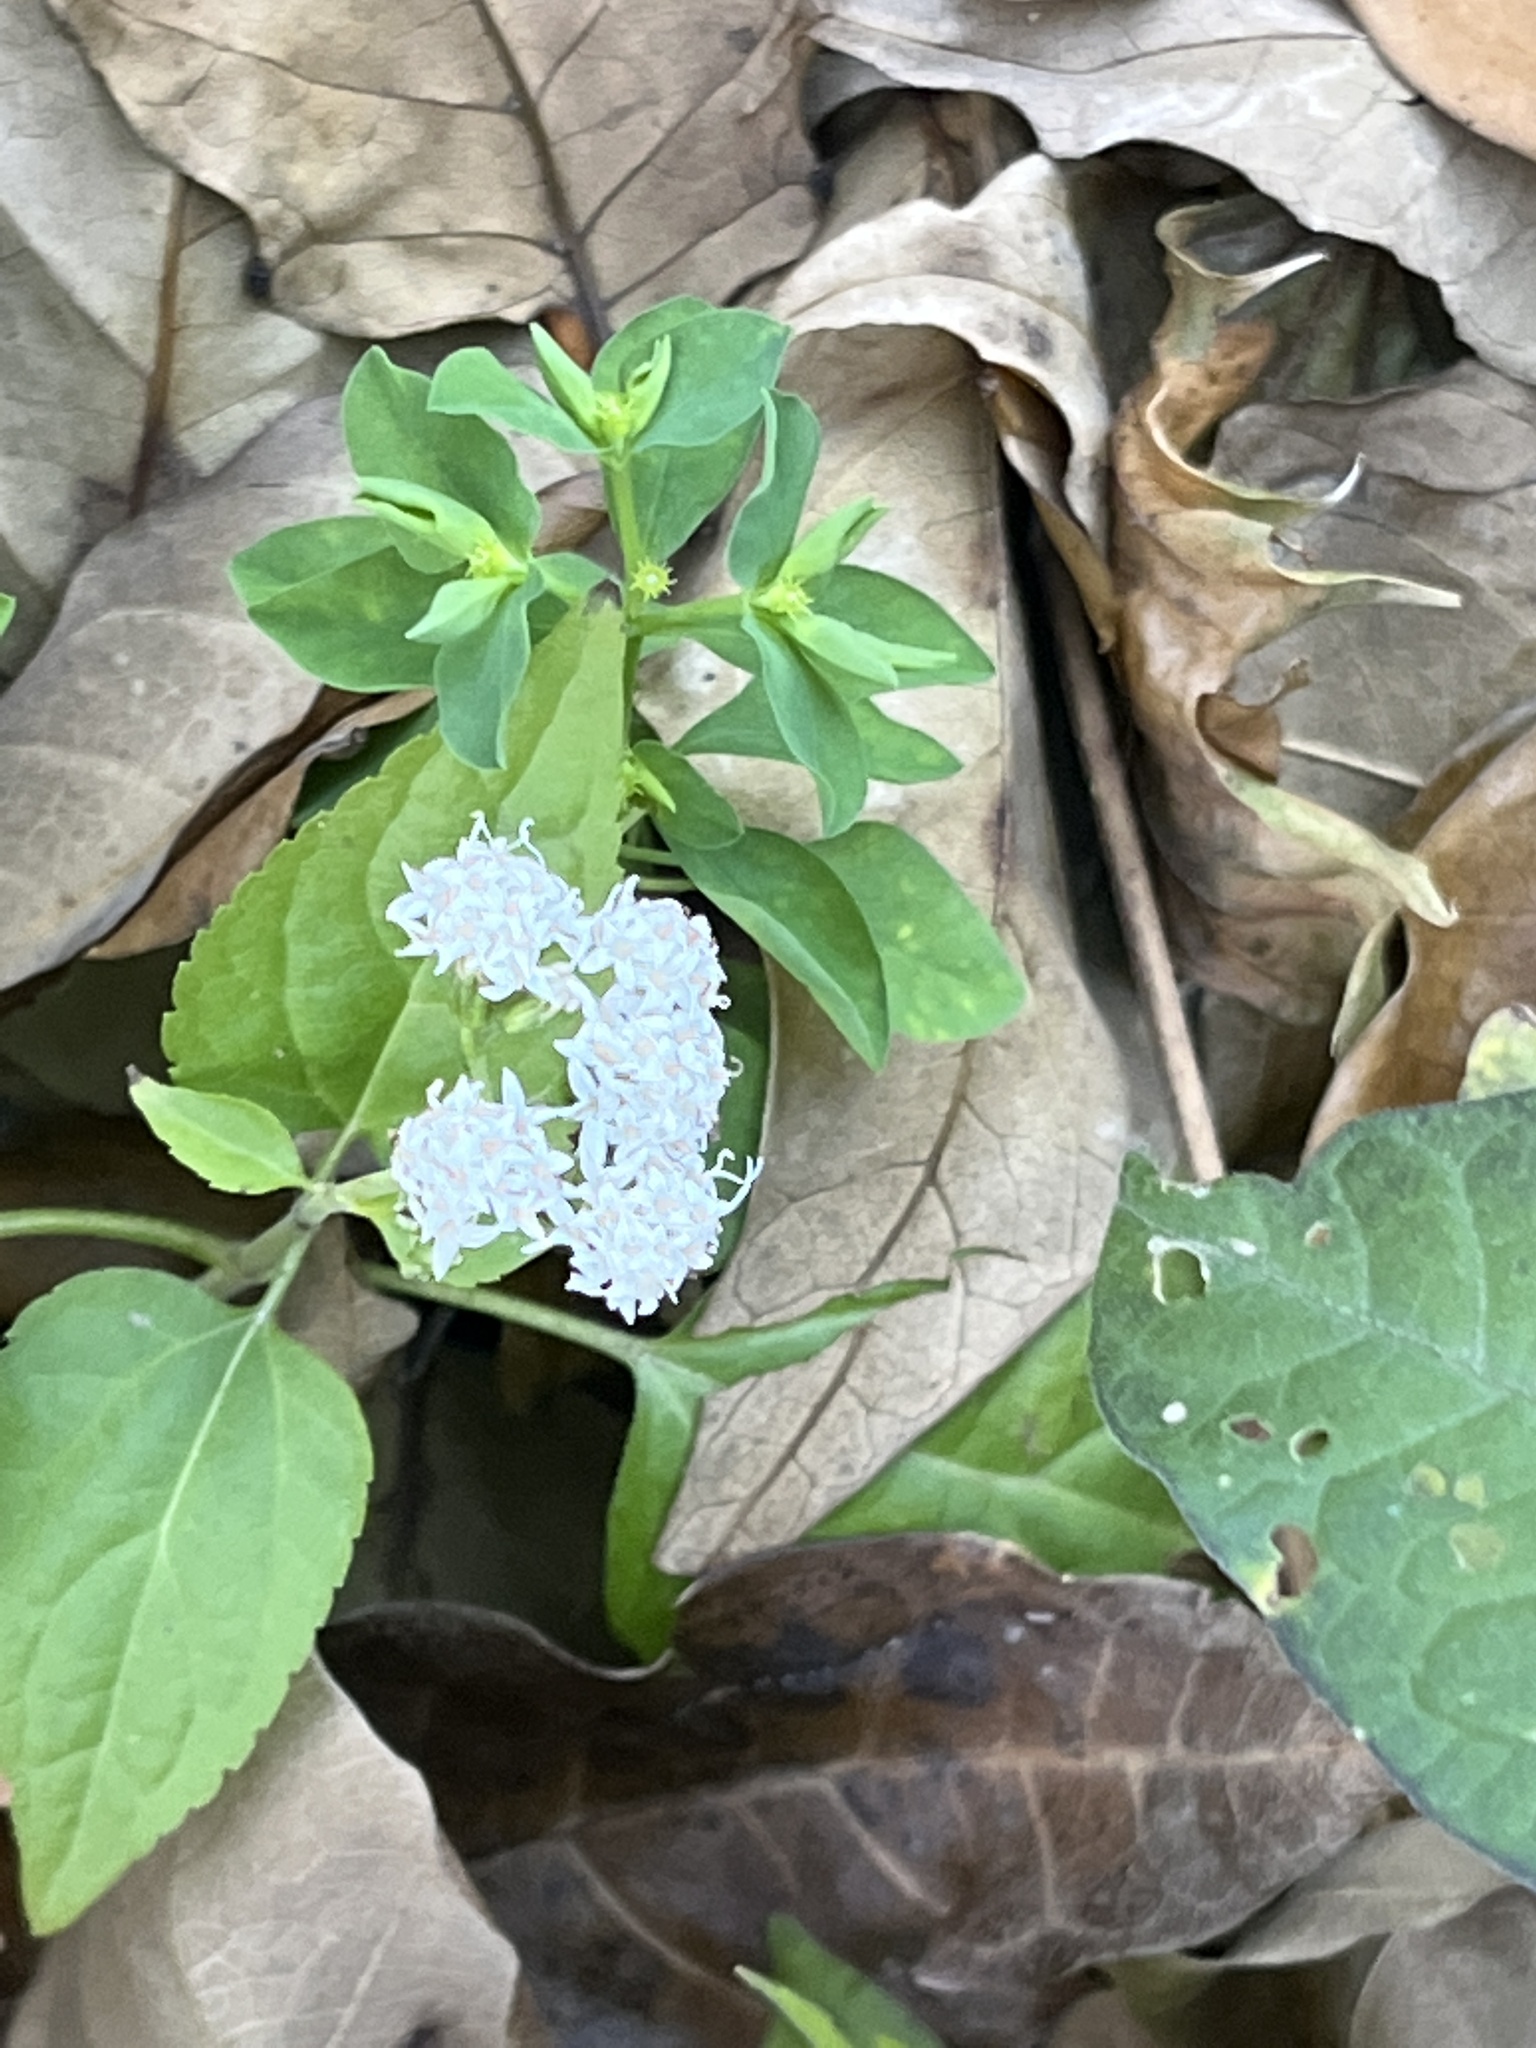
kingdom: Plantae
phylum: Tracheophyta
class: Magnoliopsida
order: Asterales
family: Asteraceae
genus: Ageratina
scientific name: Ageratina altissima
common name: White snakeroot
